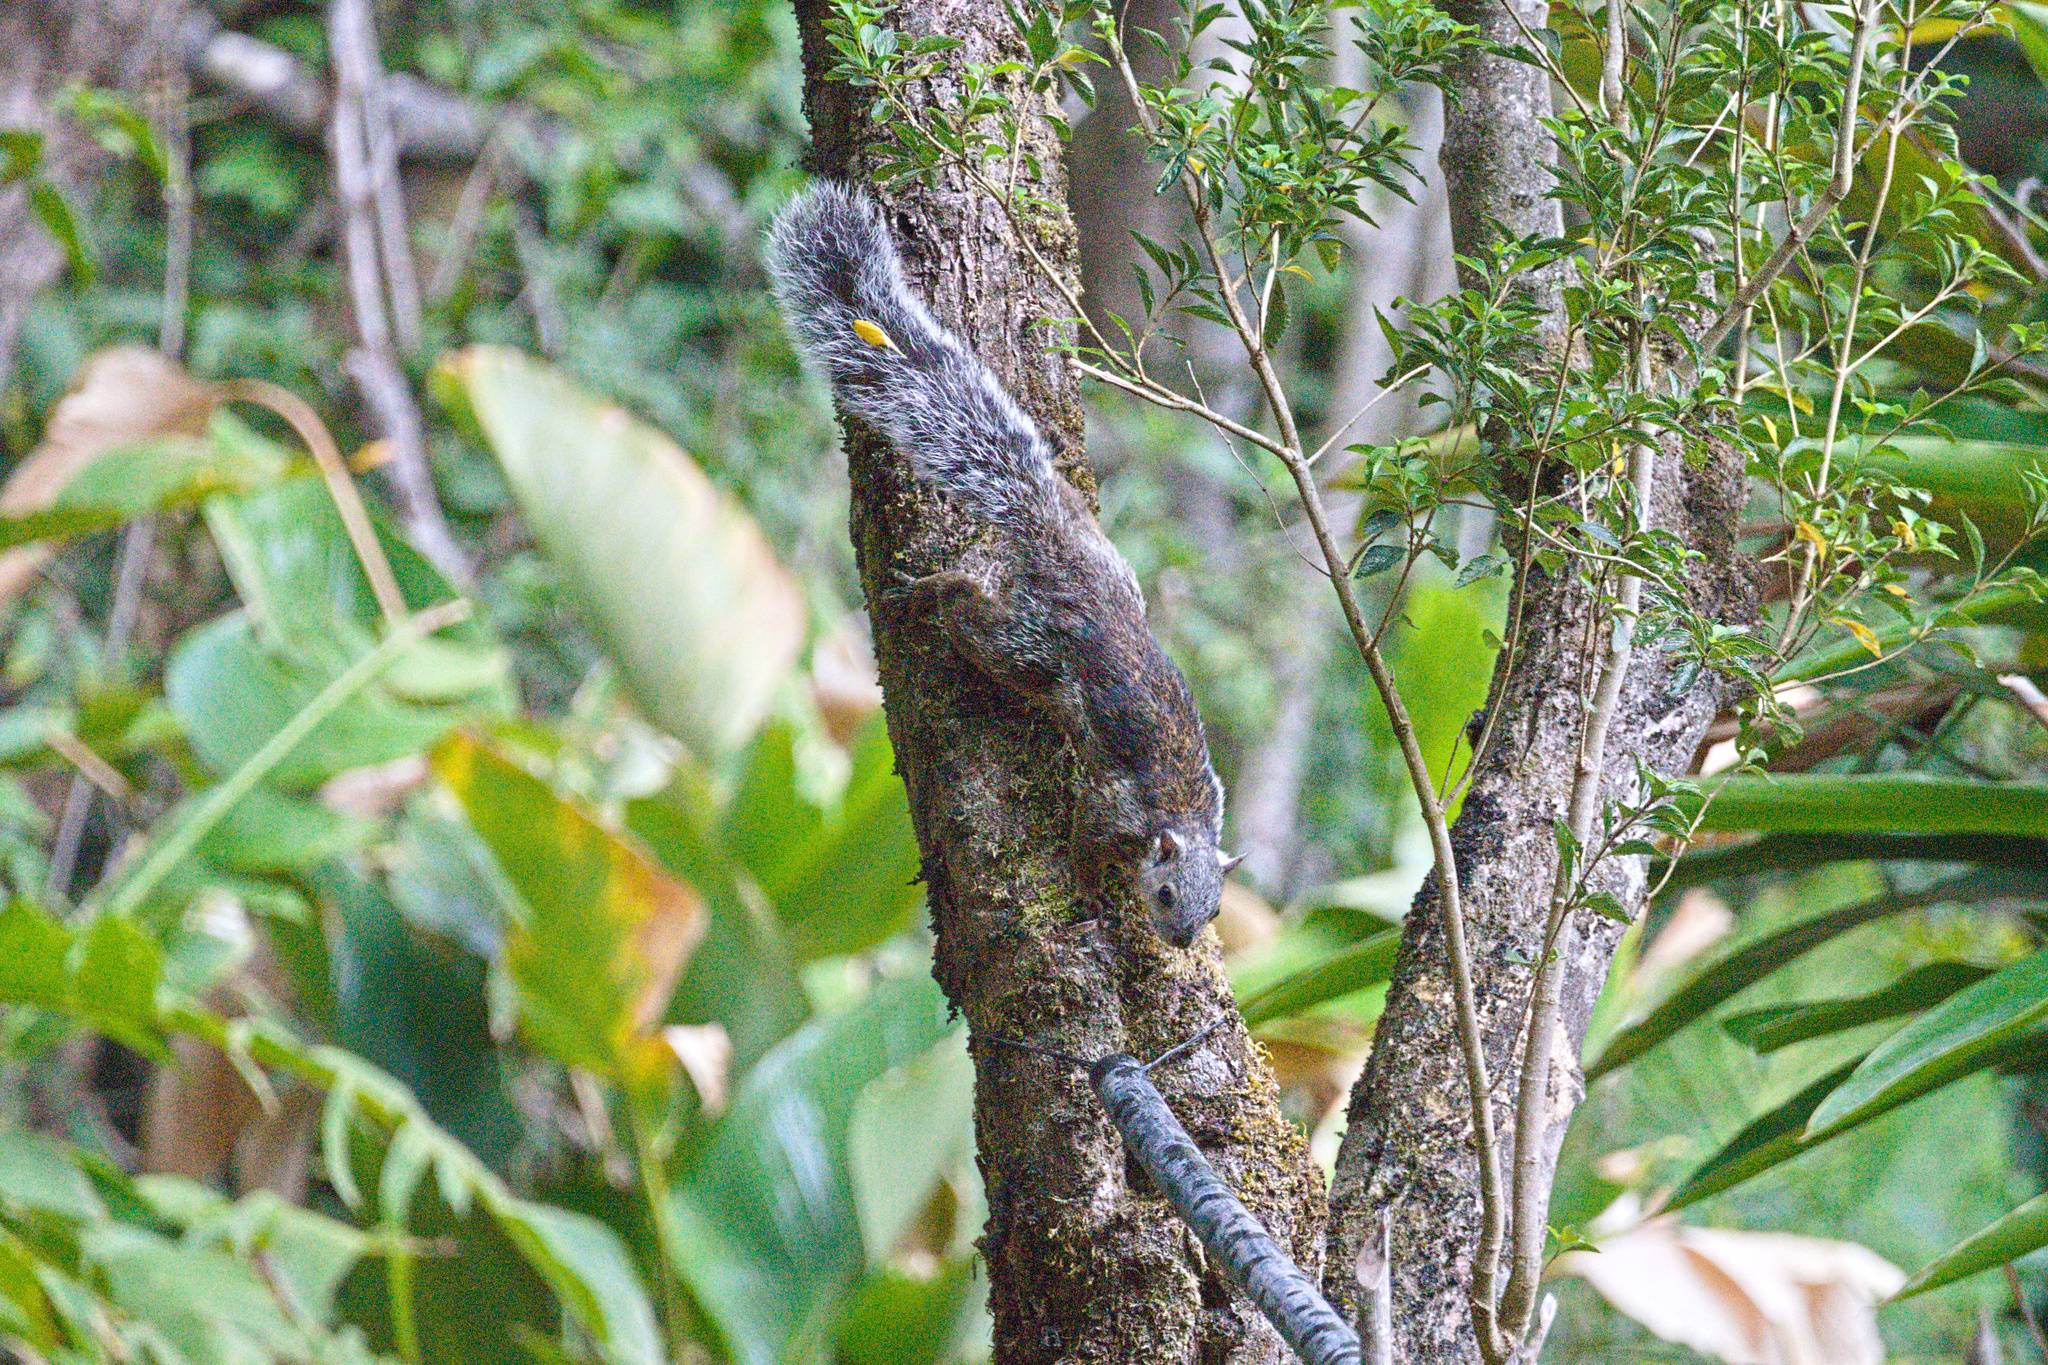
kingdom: Animalia
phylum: Chordata
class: Mammalia
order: Rodentia
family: Sciuridae
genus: Sciurus
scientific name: Sciurus variegatoides
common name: Variegated squirrel
